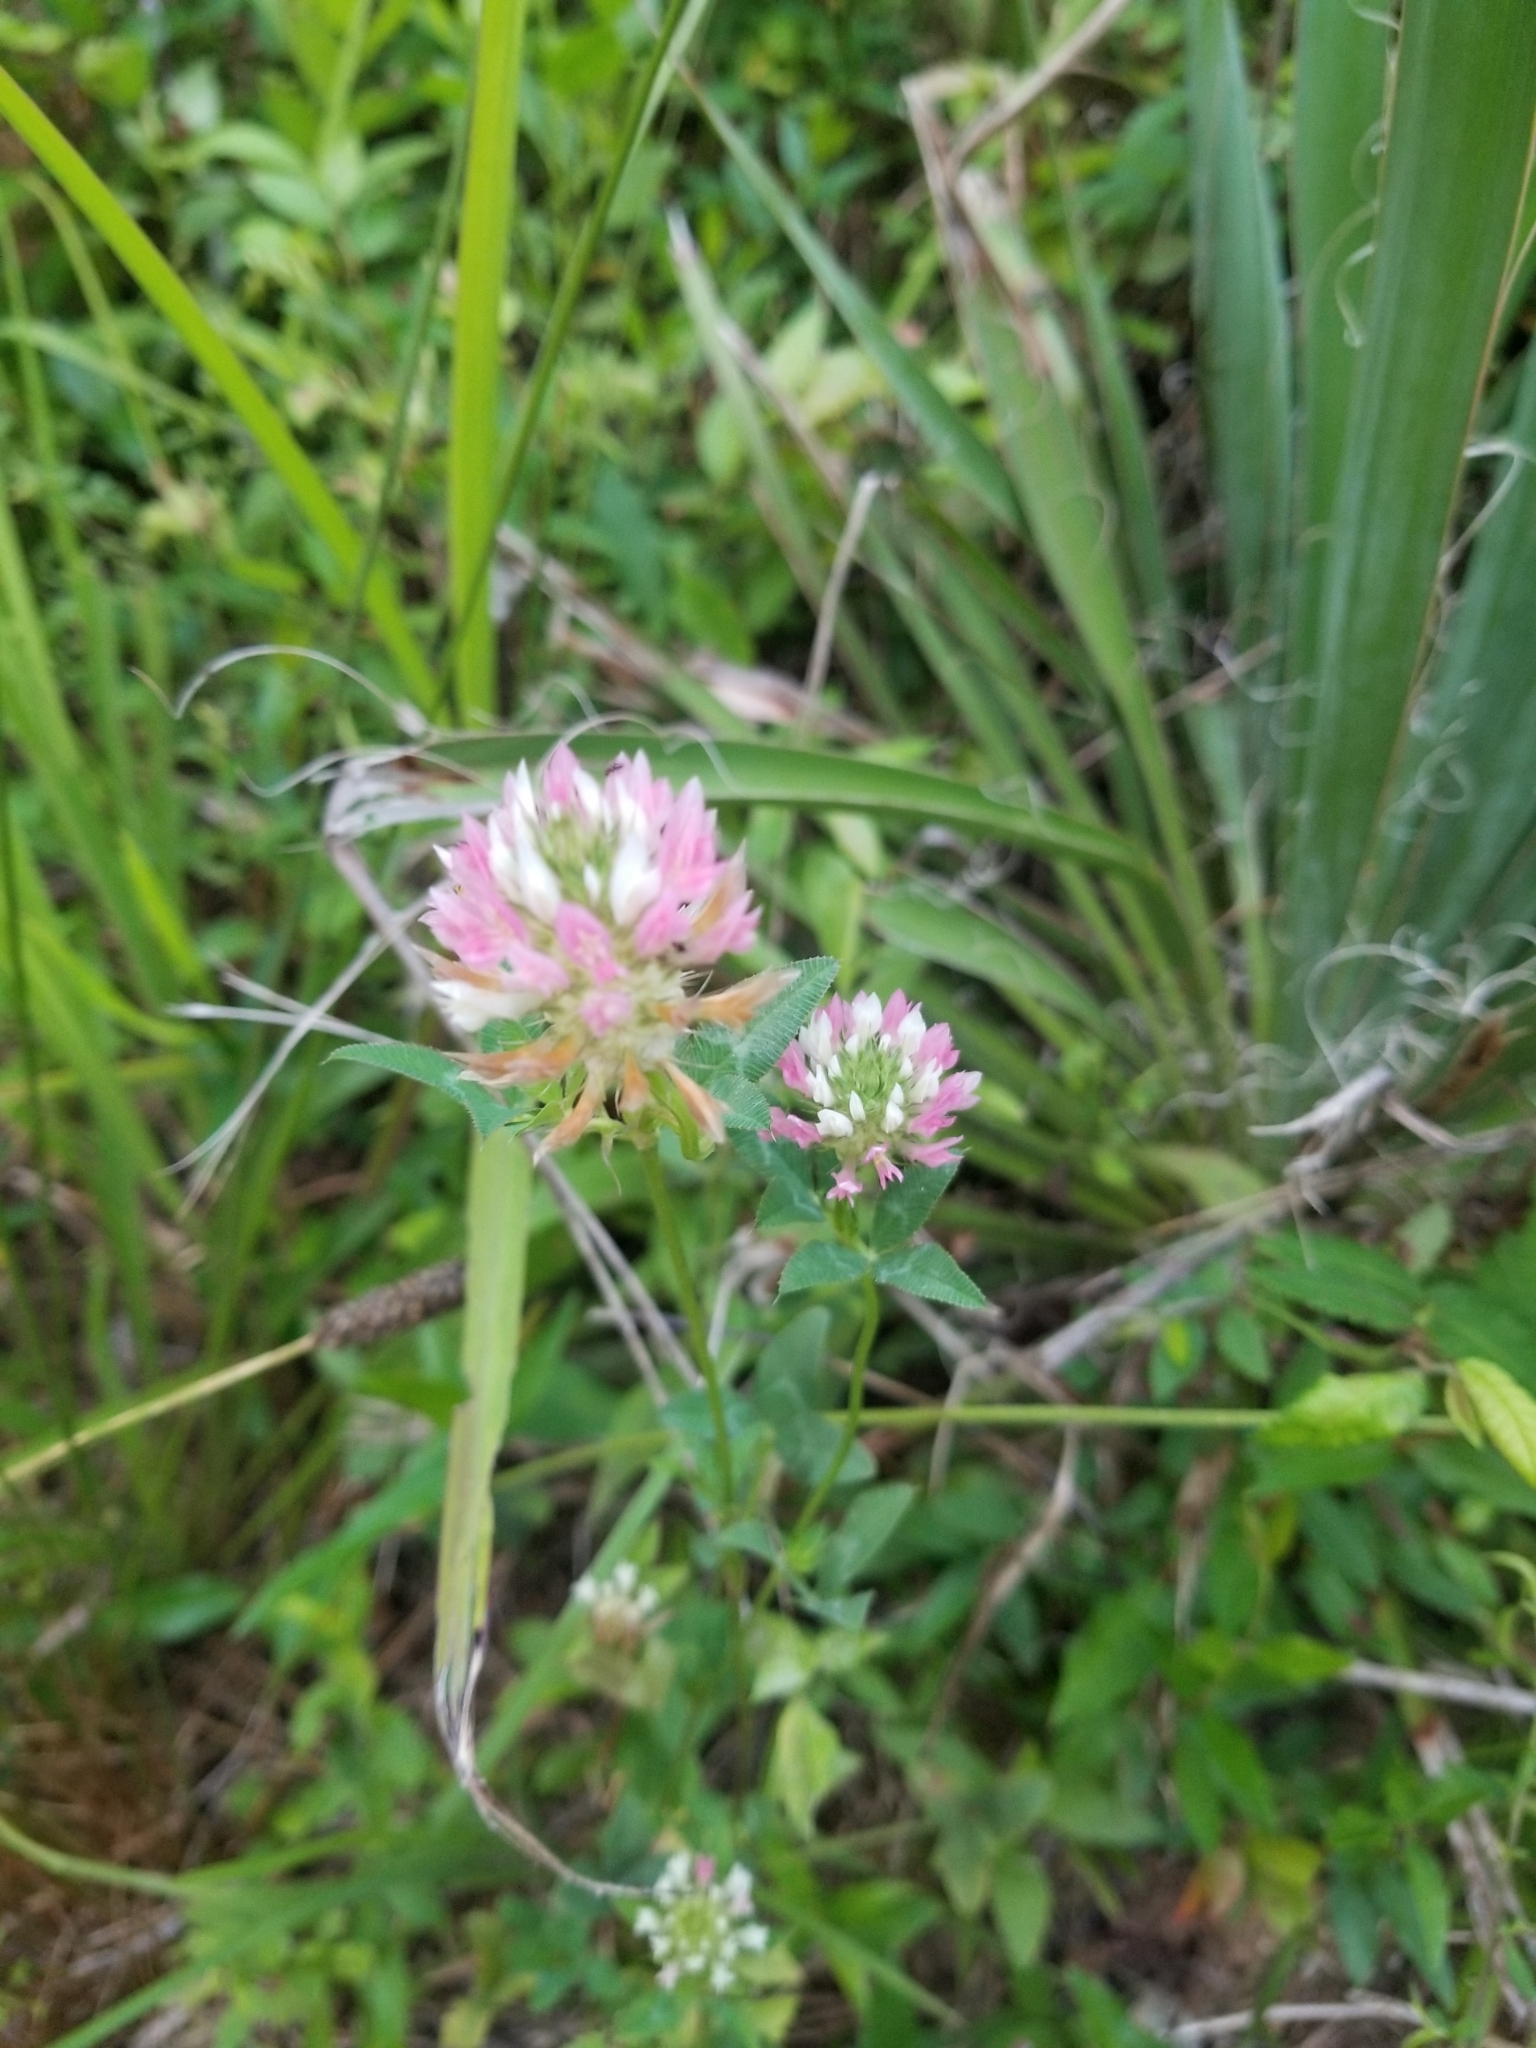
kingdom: Plantae
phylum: Tracheophyta
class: Magnoliopsida
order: Fabales
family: Fabaceae
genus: Trifolium
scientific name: Trifolium vesiculosum
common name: Arrowleaf clover
